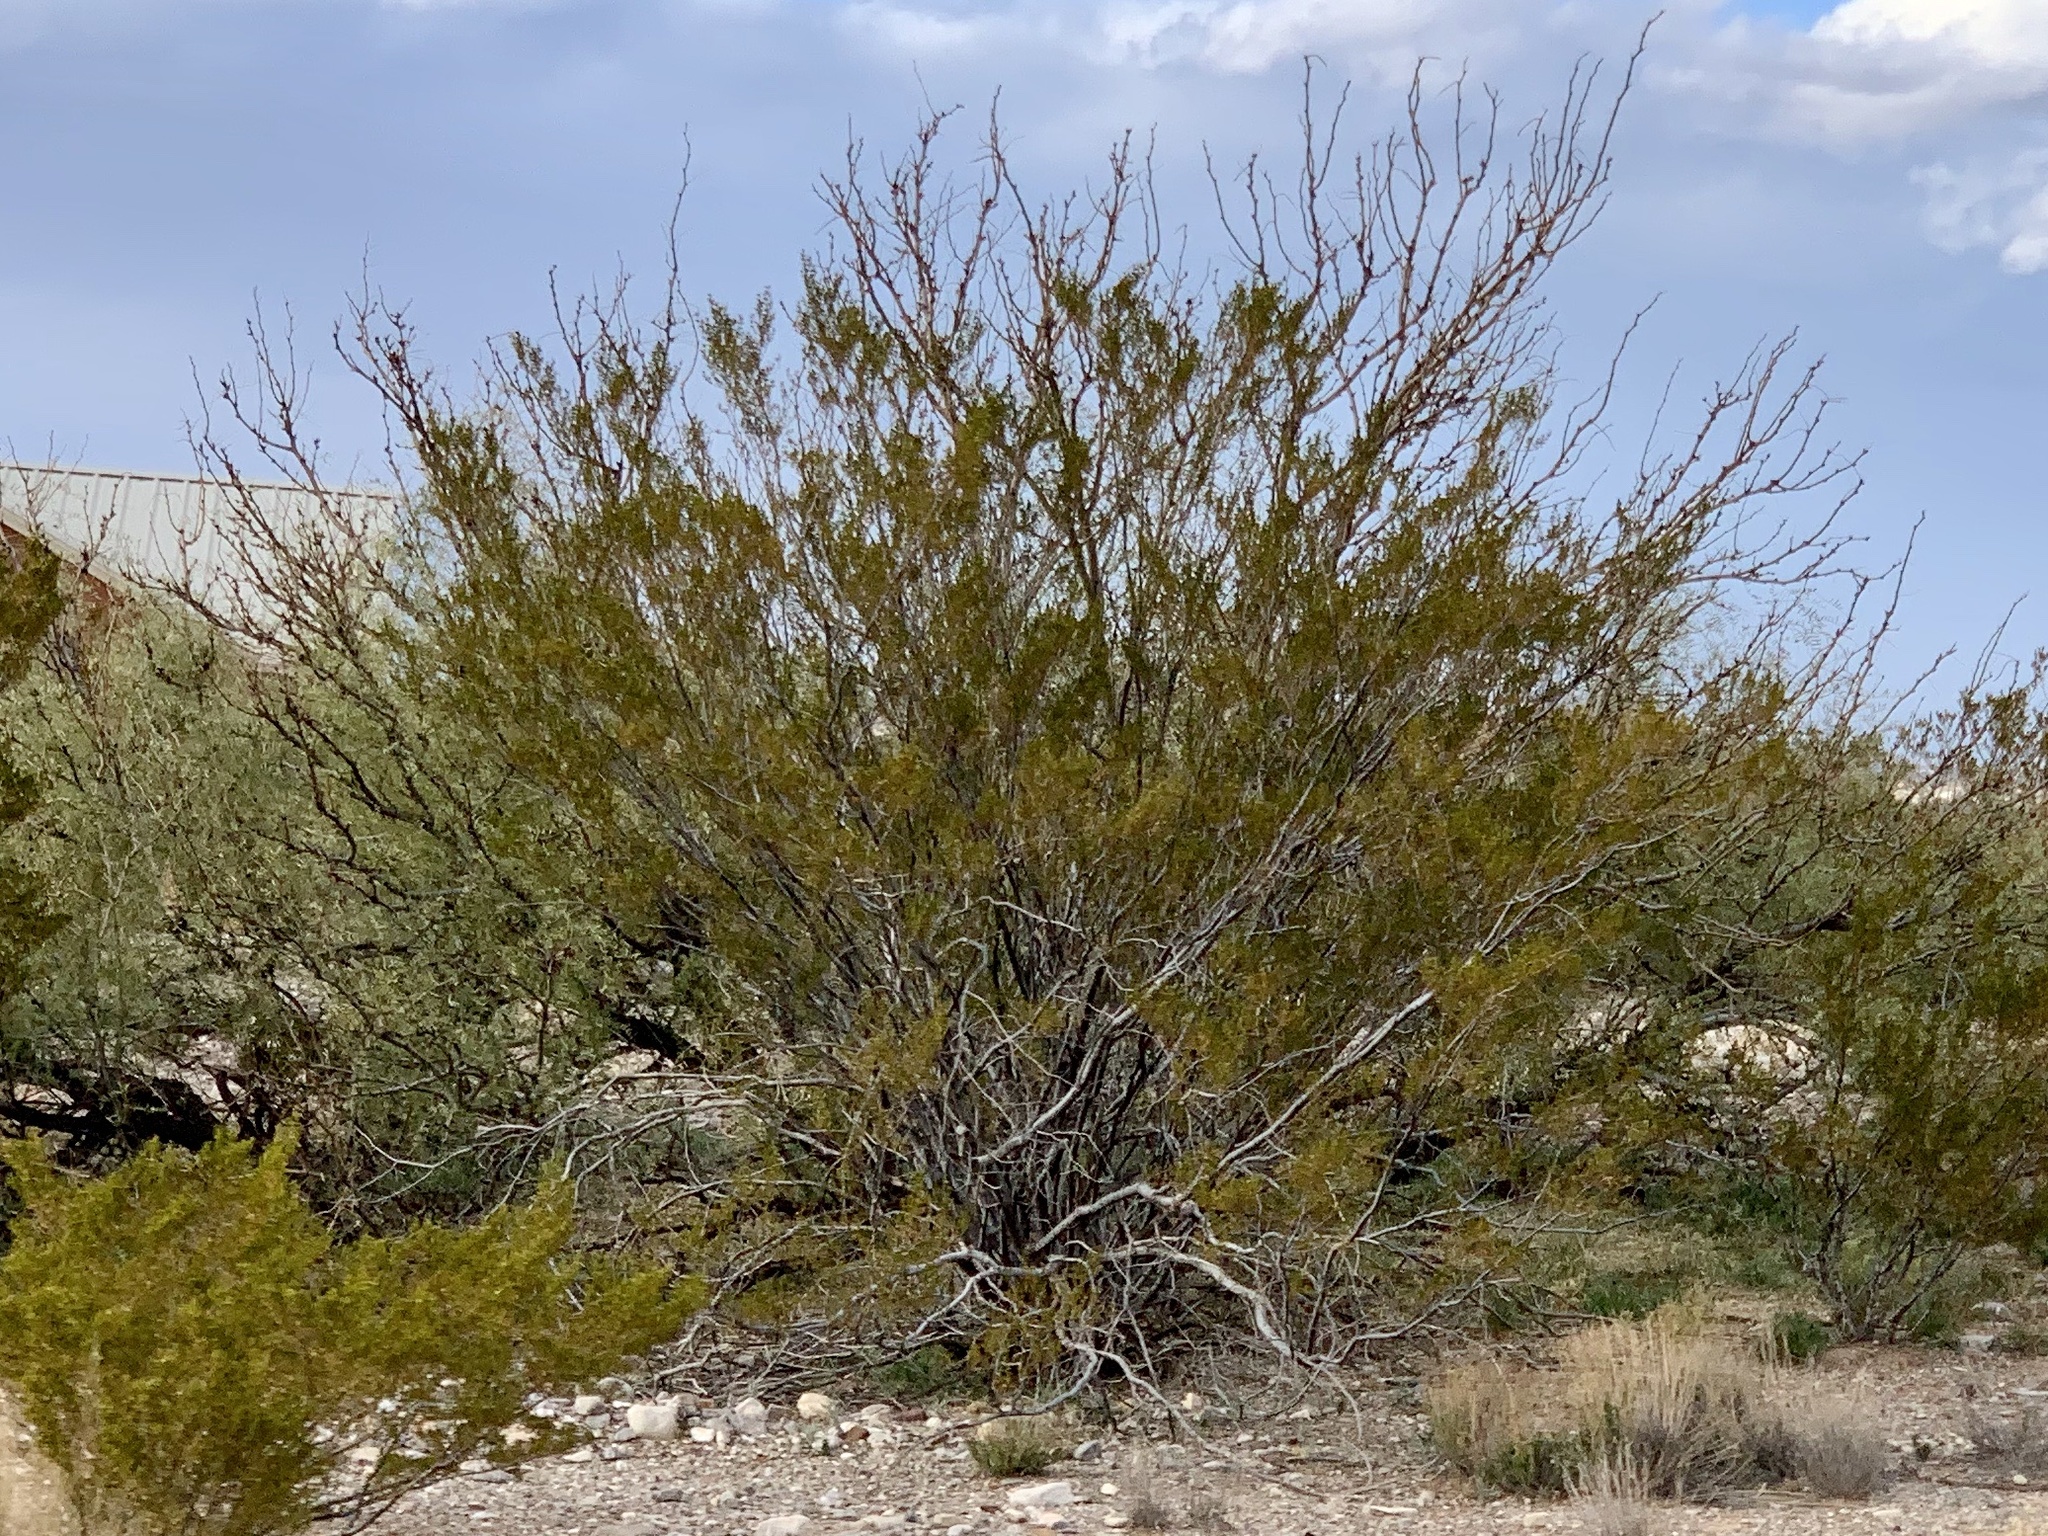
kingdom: Plantae
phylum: Tracheophyta
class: Magnoliopsida
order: Zygophyllales
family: Zygophyllaceae
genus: Larrea
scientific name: Larrea tridentata
